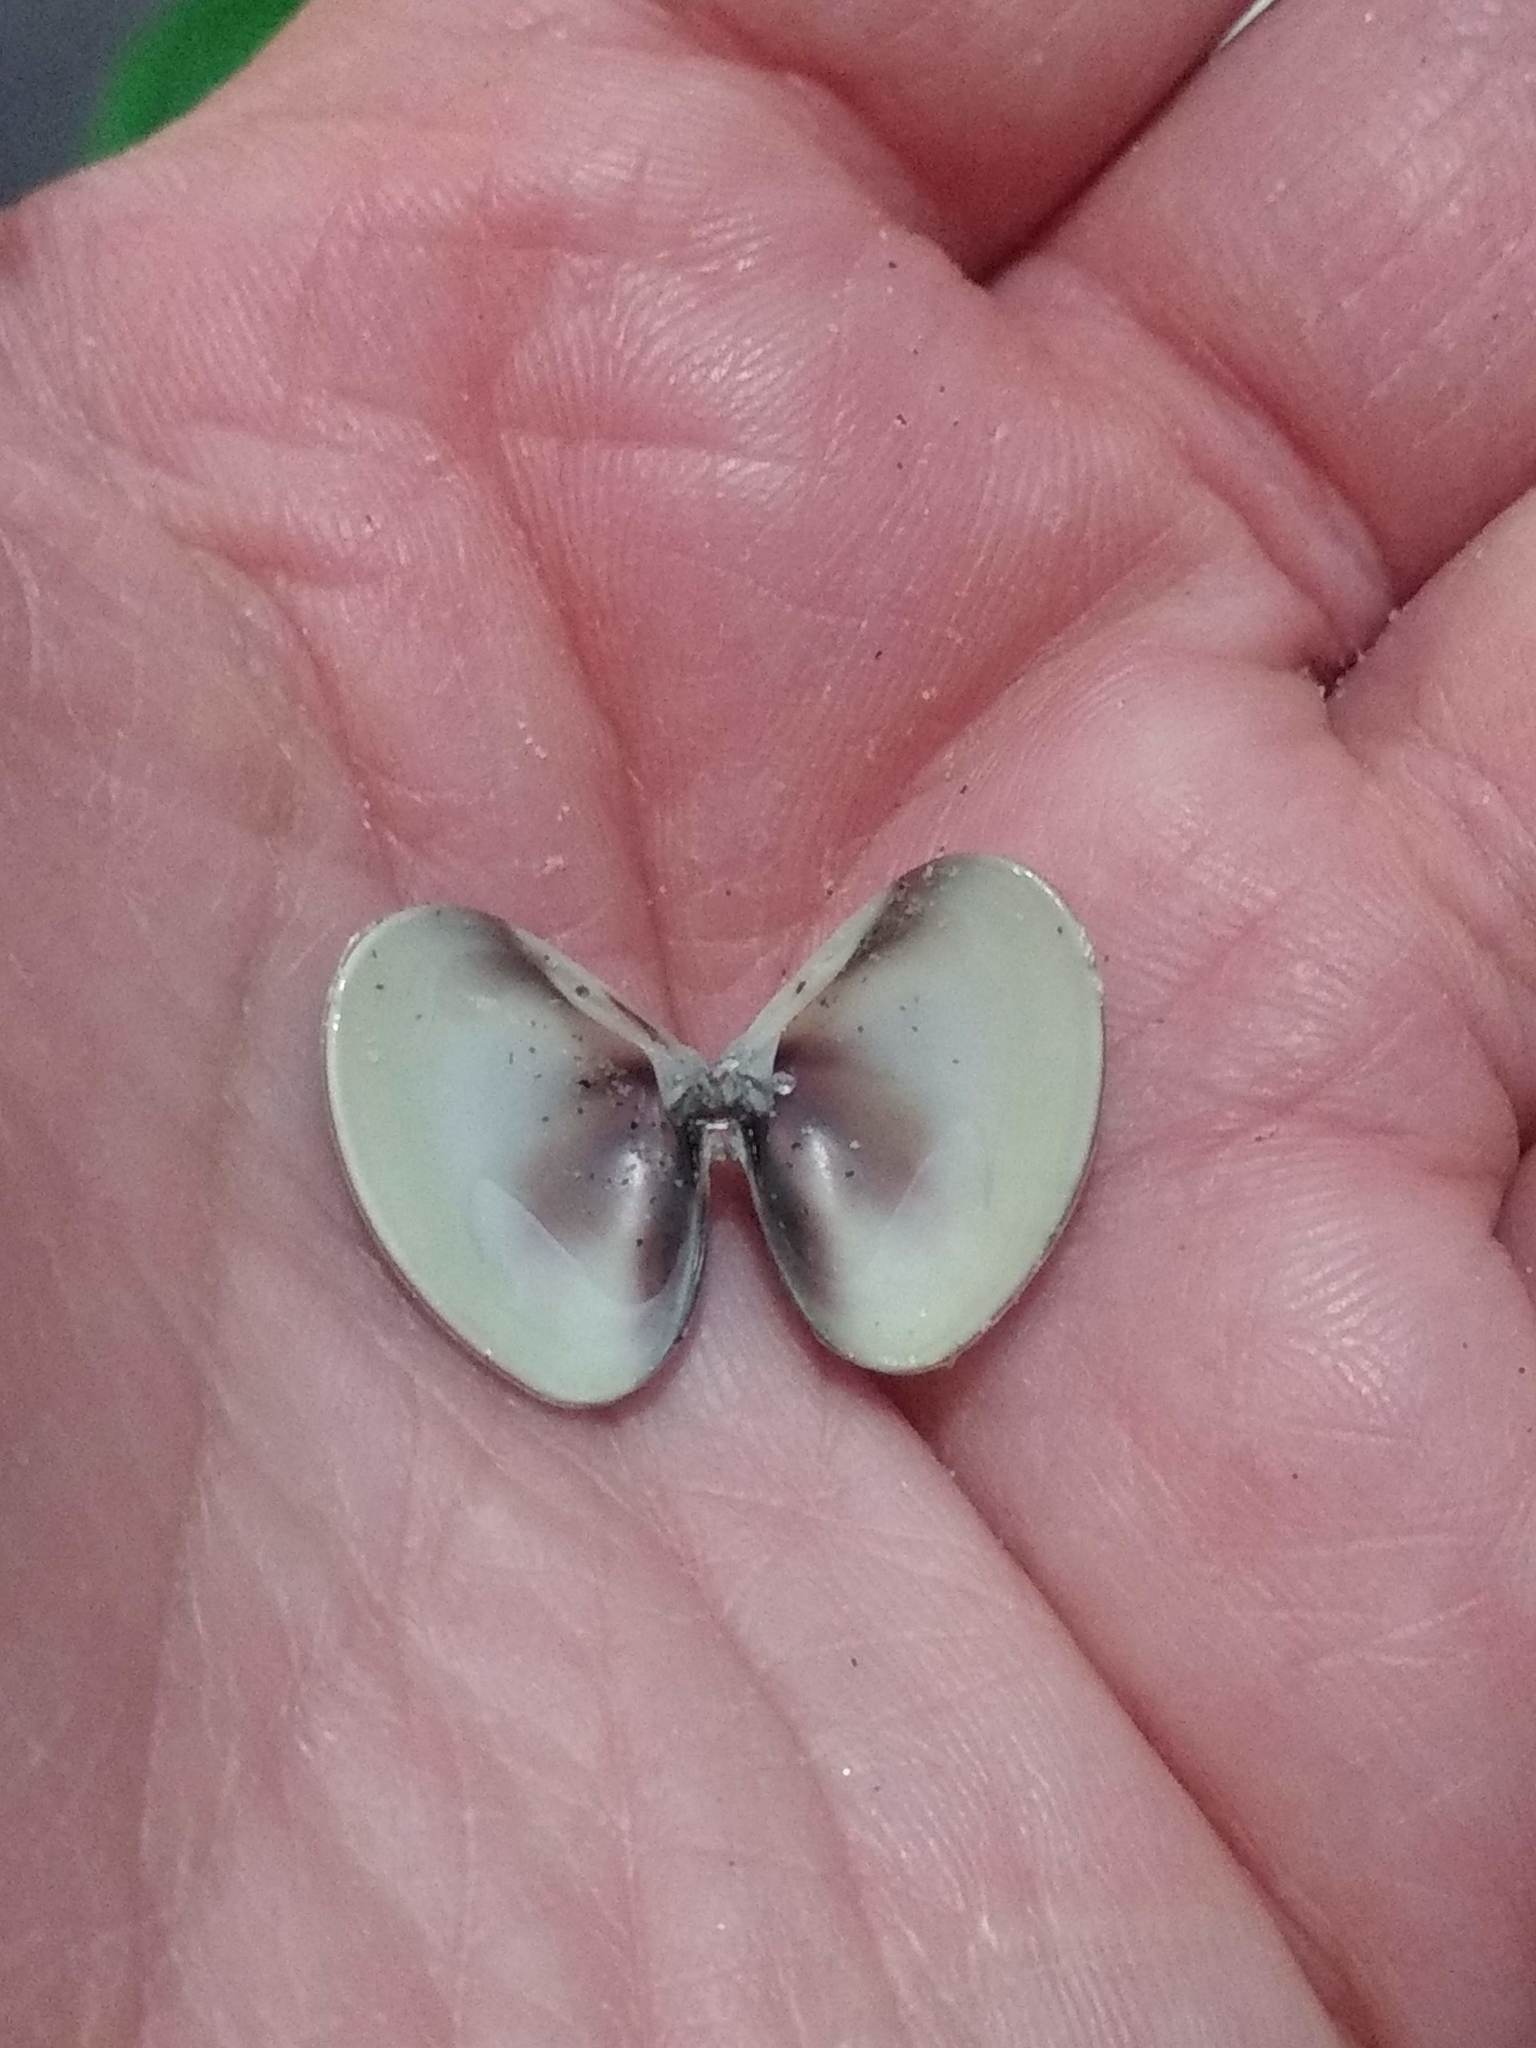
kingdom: Animalia
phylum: Mollusca
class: Bivalvia
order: Venerida
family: Veneridae
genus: Tivela
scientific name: Tivela stultorum
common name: Pismo clam
